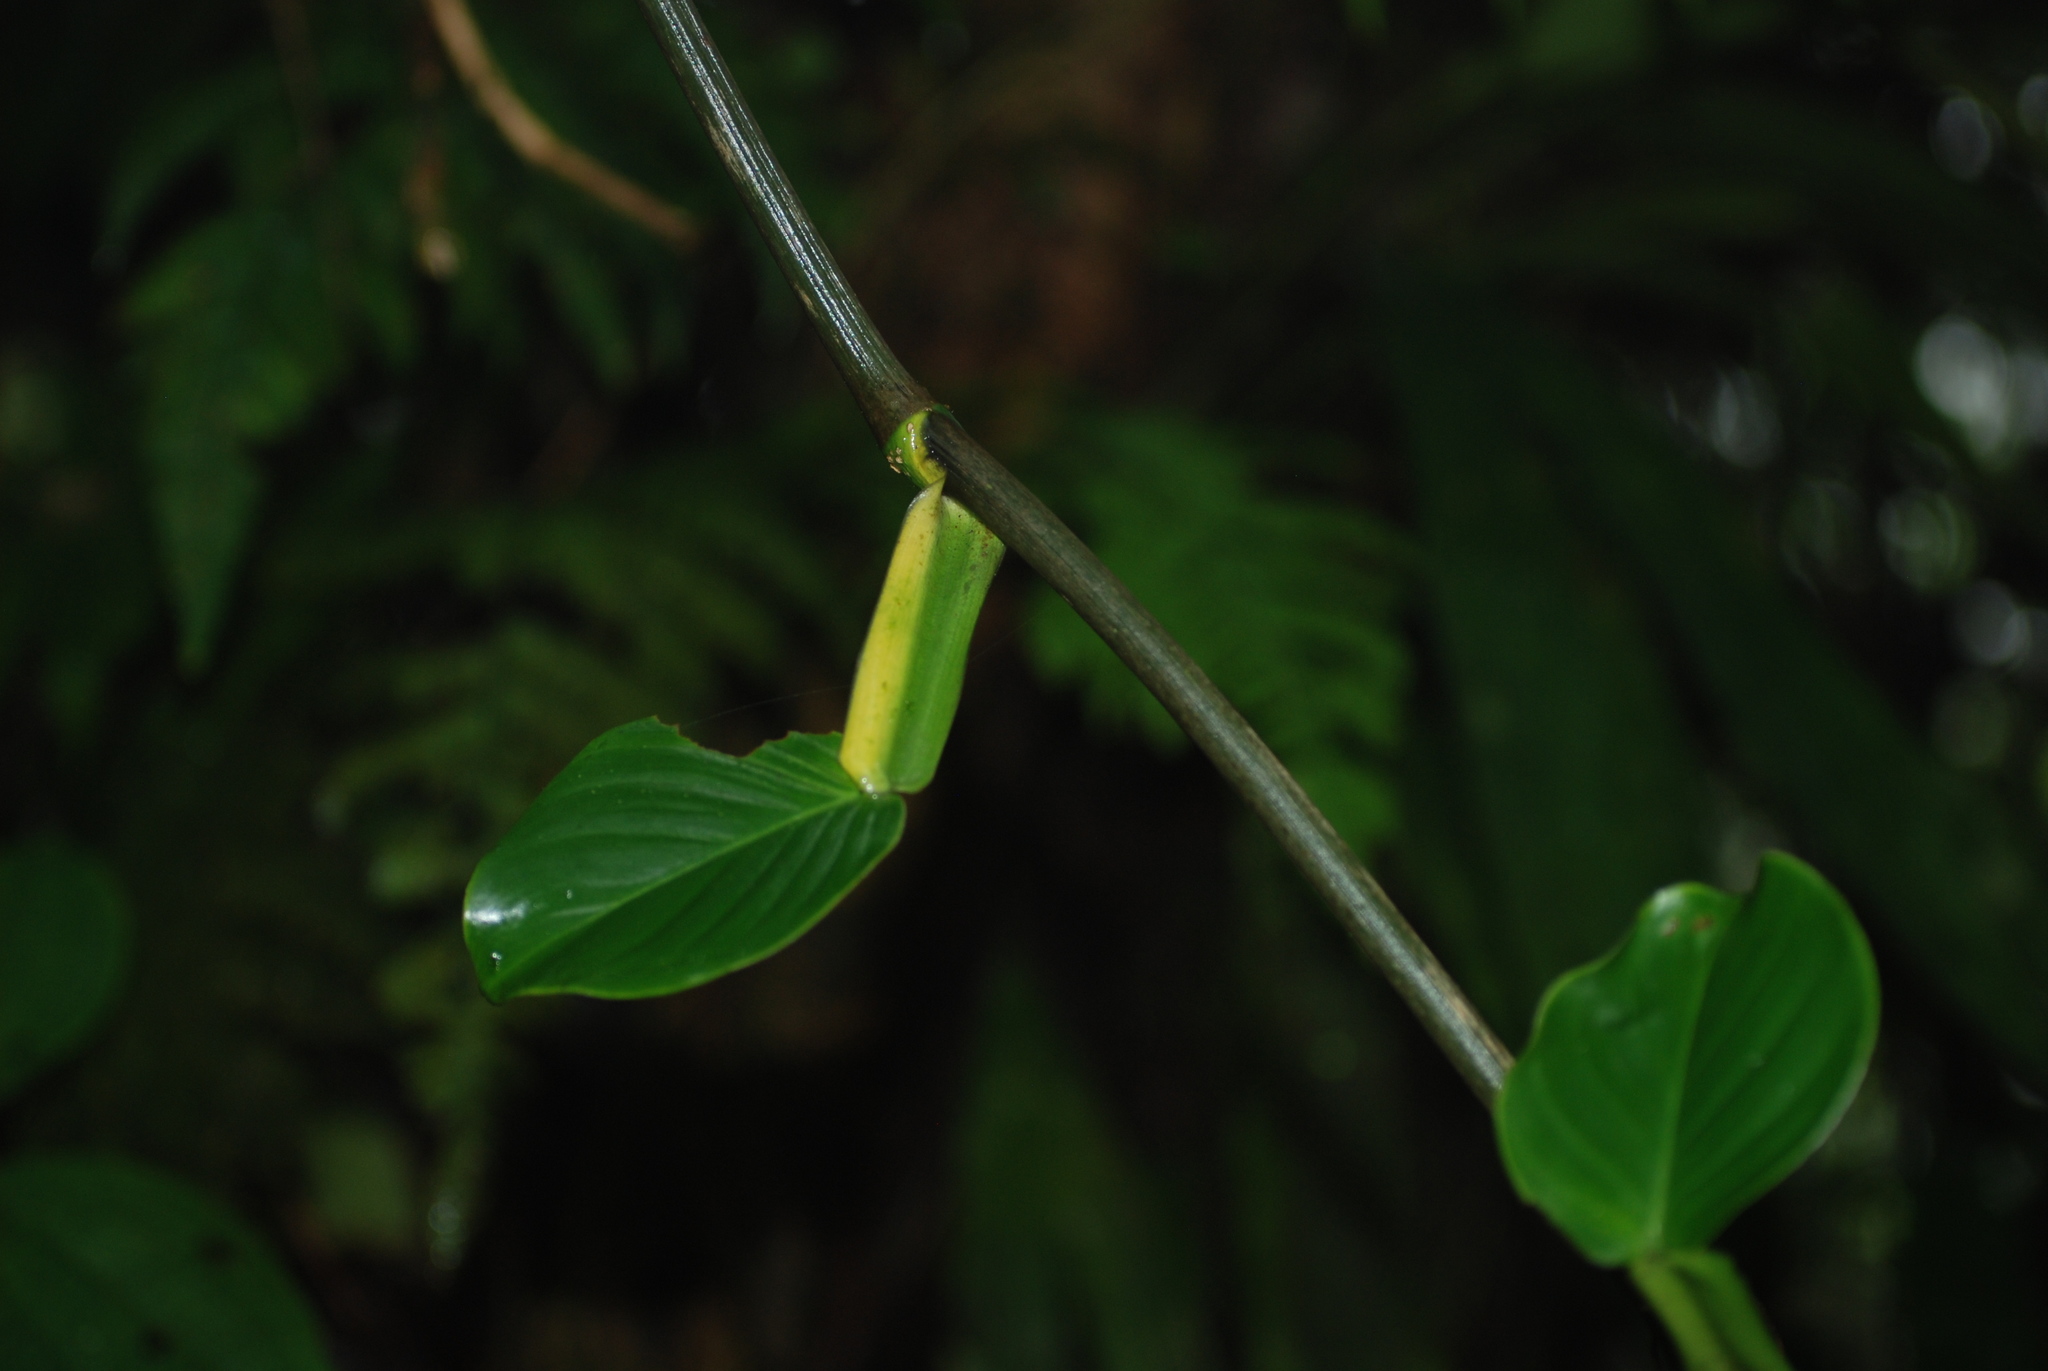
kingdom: Plantae
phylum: Tracheophyta
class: Liliopsida
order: Alismatales
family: Araceae
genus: Philodendron
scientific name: Philodendron aurantiifolium
